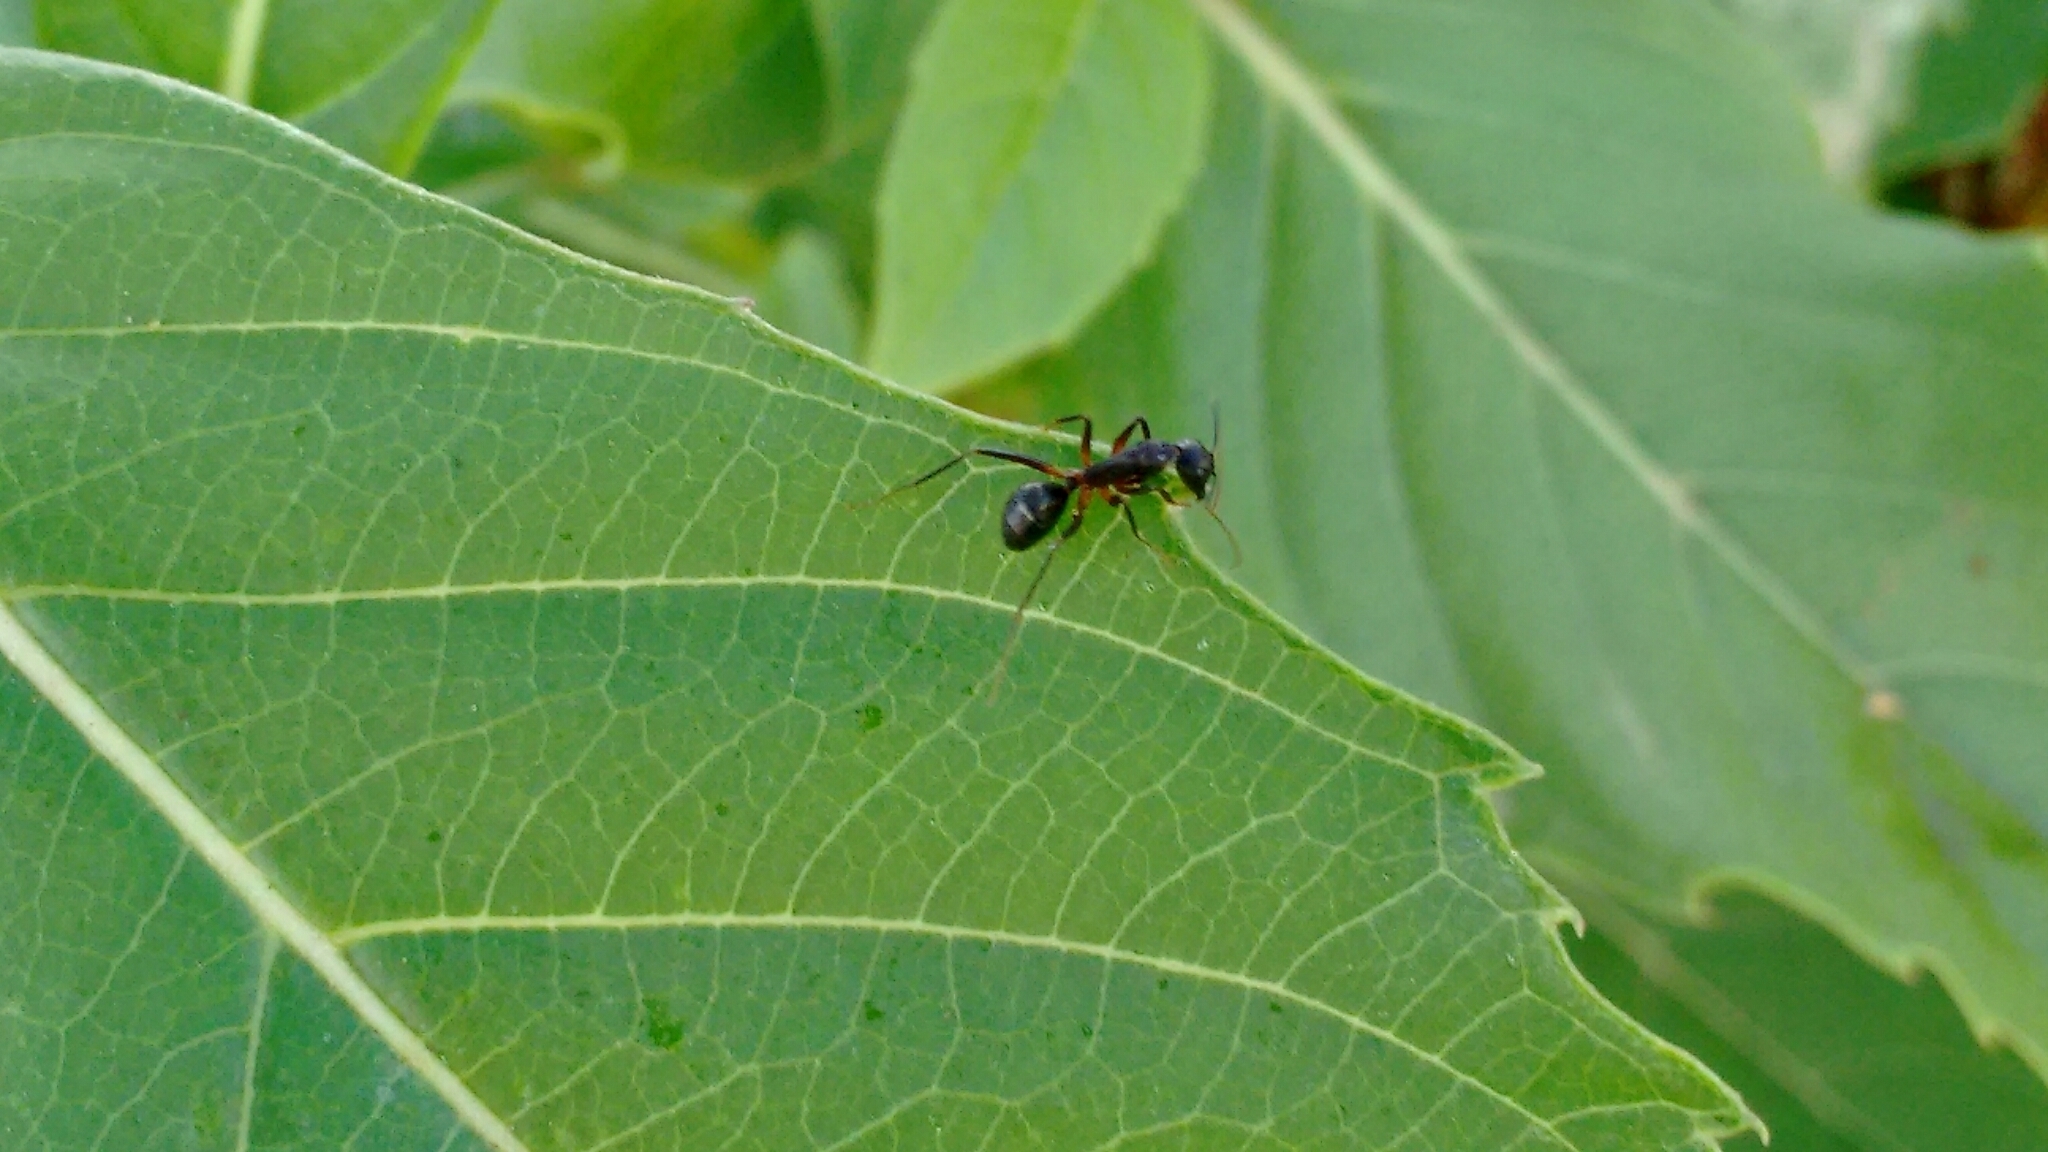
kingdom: Animalia
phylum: Arthropoda
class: Insecta
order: Hymenoptera
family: Formicidae
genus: Camponotus
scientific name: Camponotus compressus
